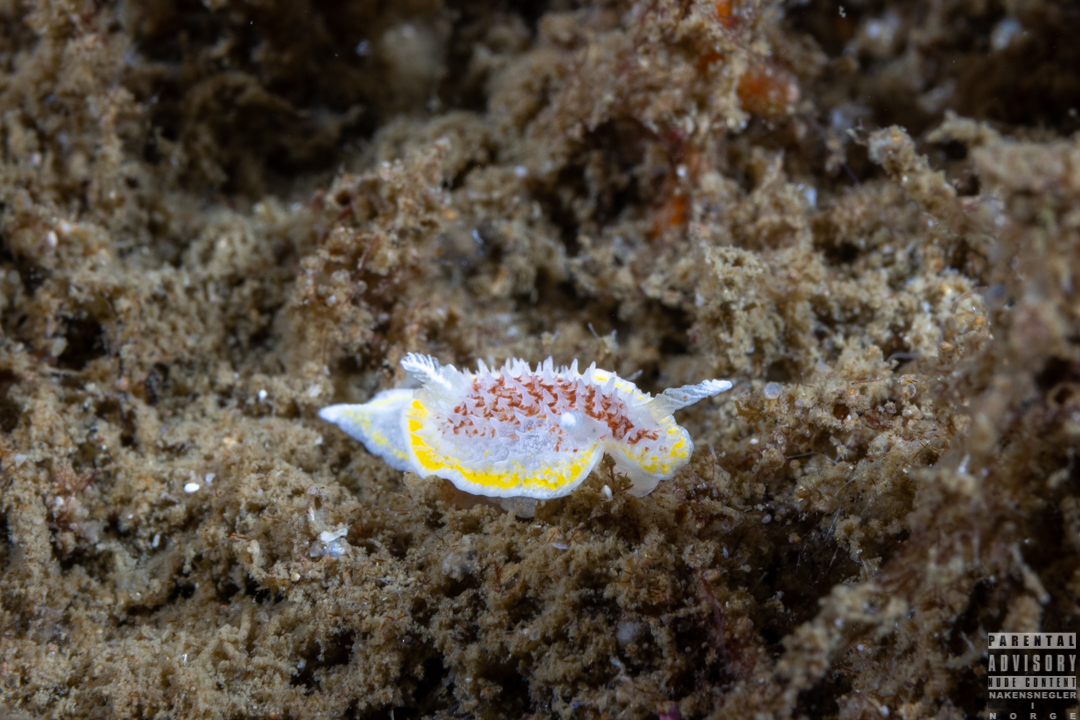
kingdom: Animalia
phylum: Mollusca
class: Gastropoda
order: Nudibranchia
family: Calycidorididae
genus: Diaphorodoris
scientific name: Diaphorodoris luteocincta
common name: Fried egg nudibranch
